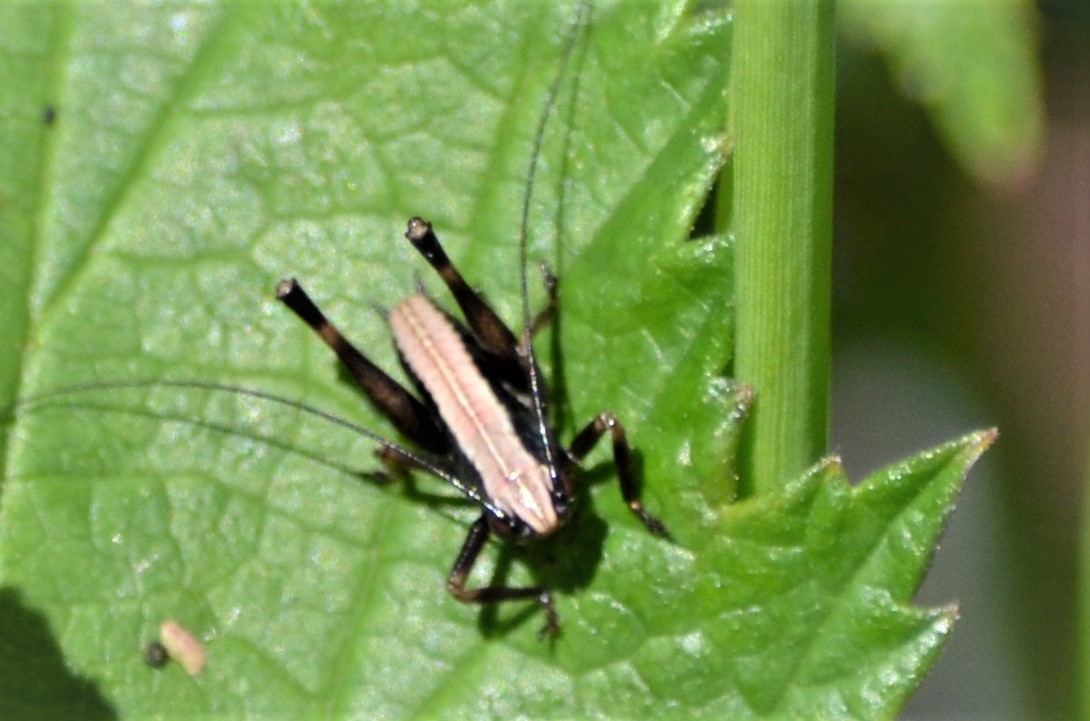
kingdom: Animalia
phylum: Arthropoda
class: Insecta
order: Orthoptera
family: Tettigoniidae
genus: Pholidoptera
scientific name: Pholidoptera griseoaptera
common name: Dark bush-cricket
